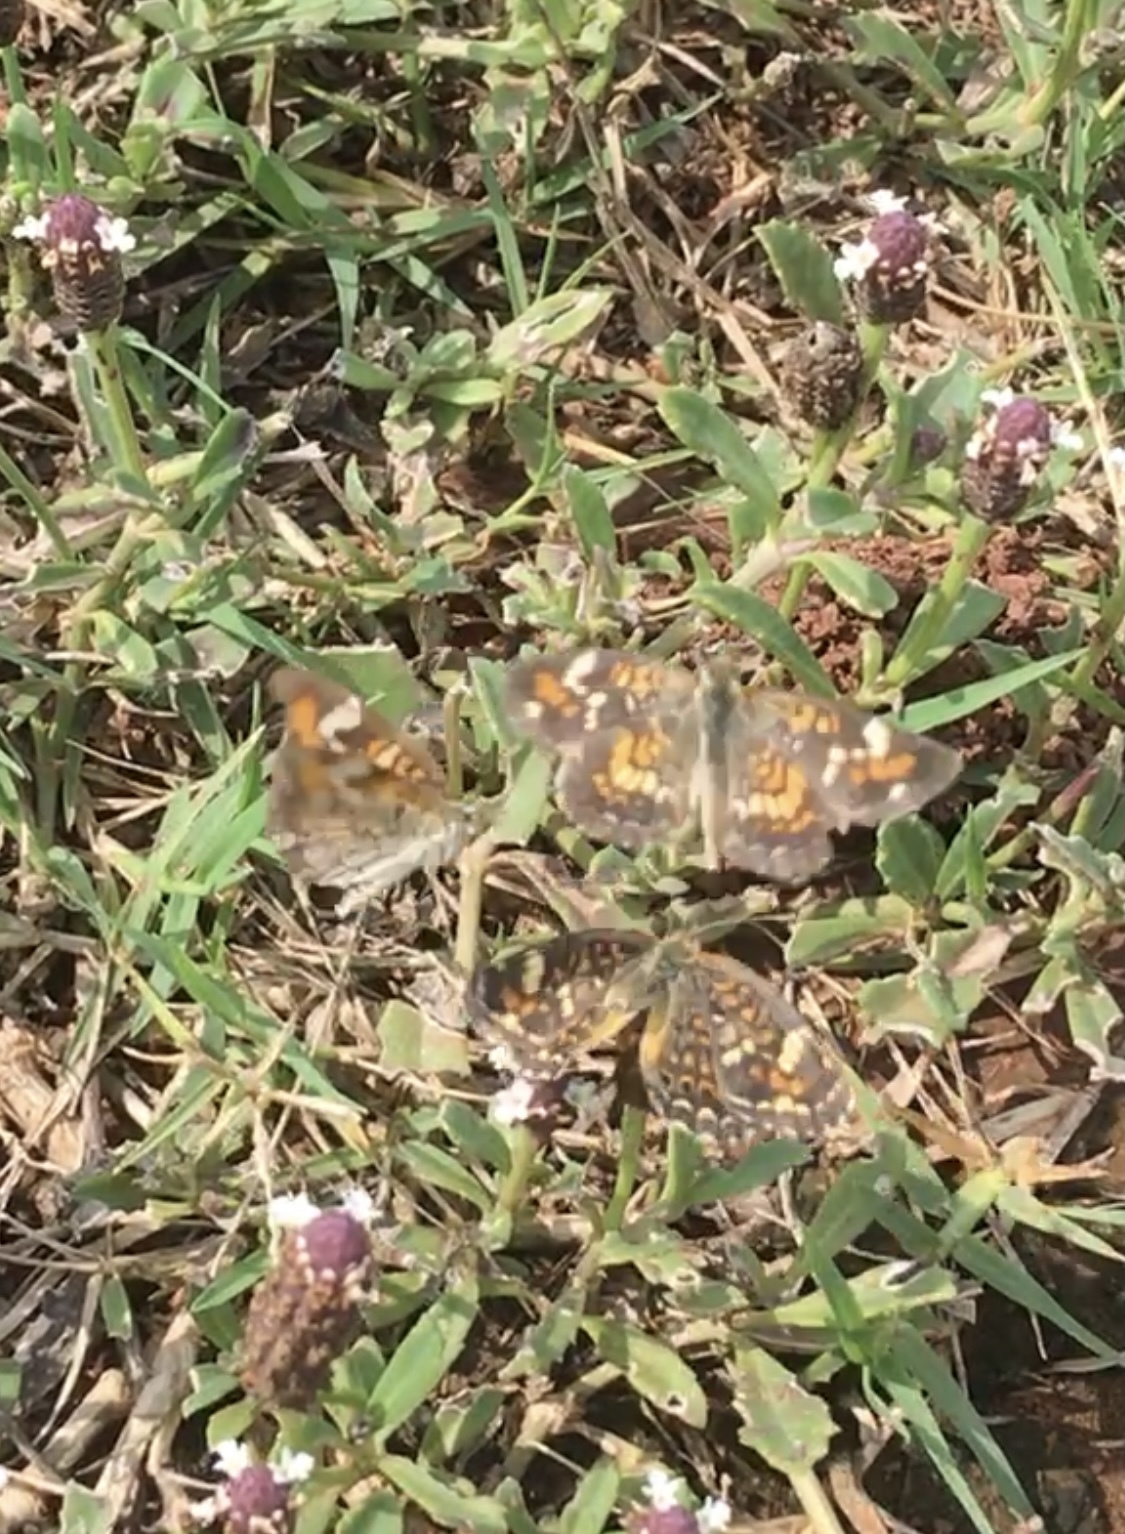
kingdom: Animalia
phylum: Arthropoda
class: Insecta
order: Lepidoptera
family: Nymphalidae
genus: Phyciodes
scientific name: Phyciodes phaon
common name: Phaon crescent
